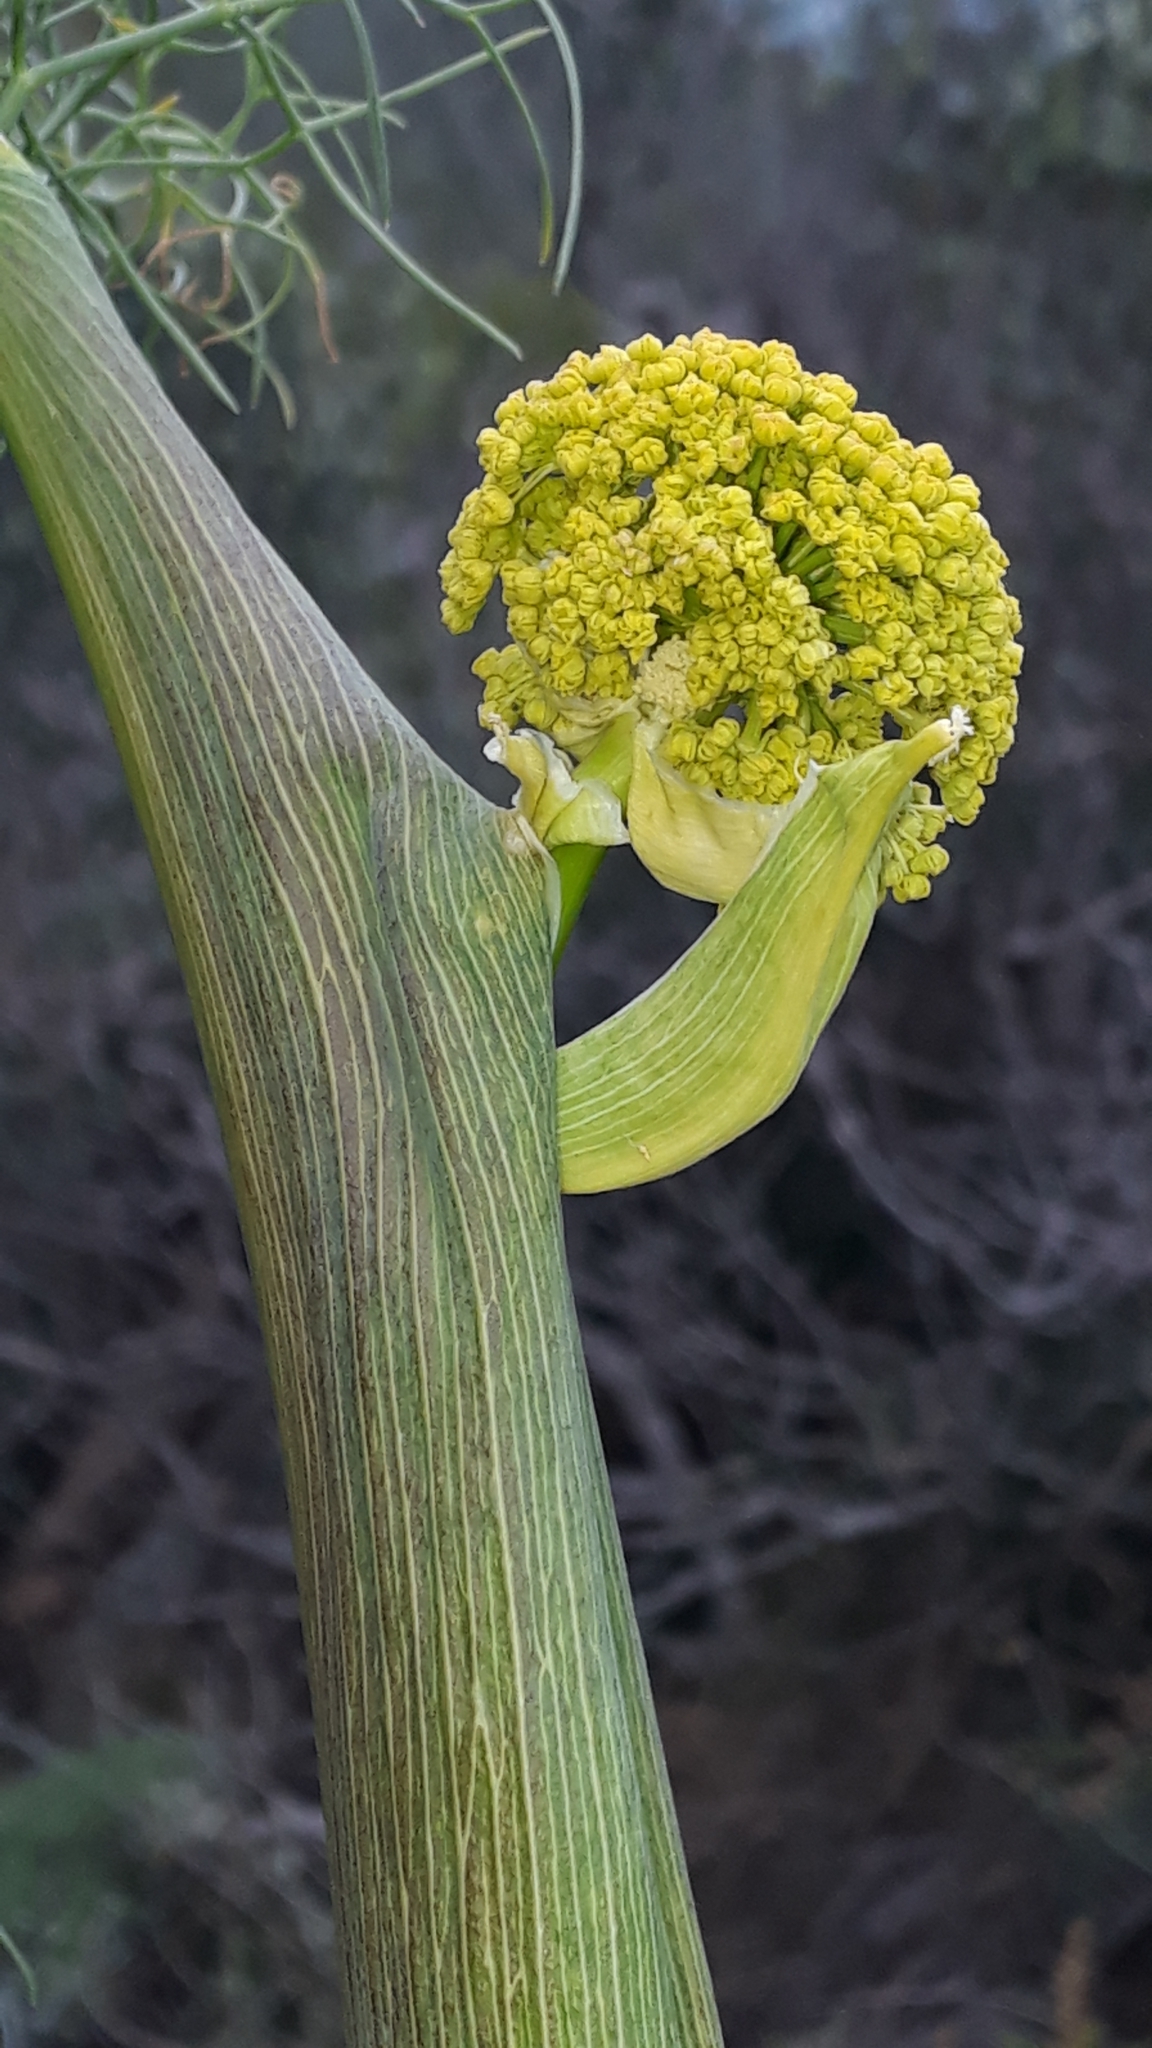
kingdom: Plantae
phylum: Tracheophyta
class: Magnoliopsida
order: Apiales
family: Apiaceae
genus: Ferula
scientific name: Ferula communis
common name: Giant fennel
